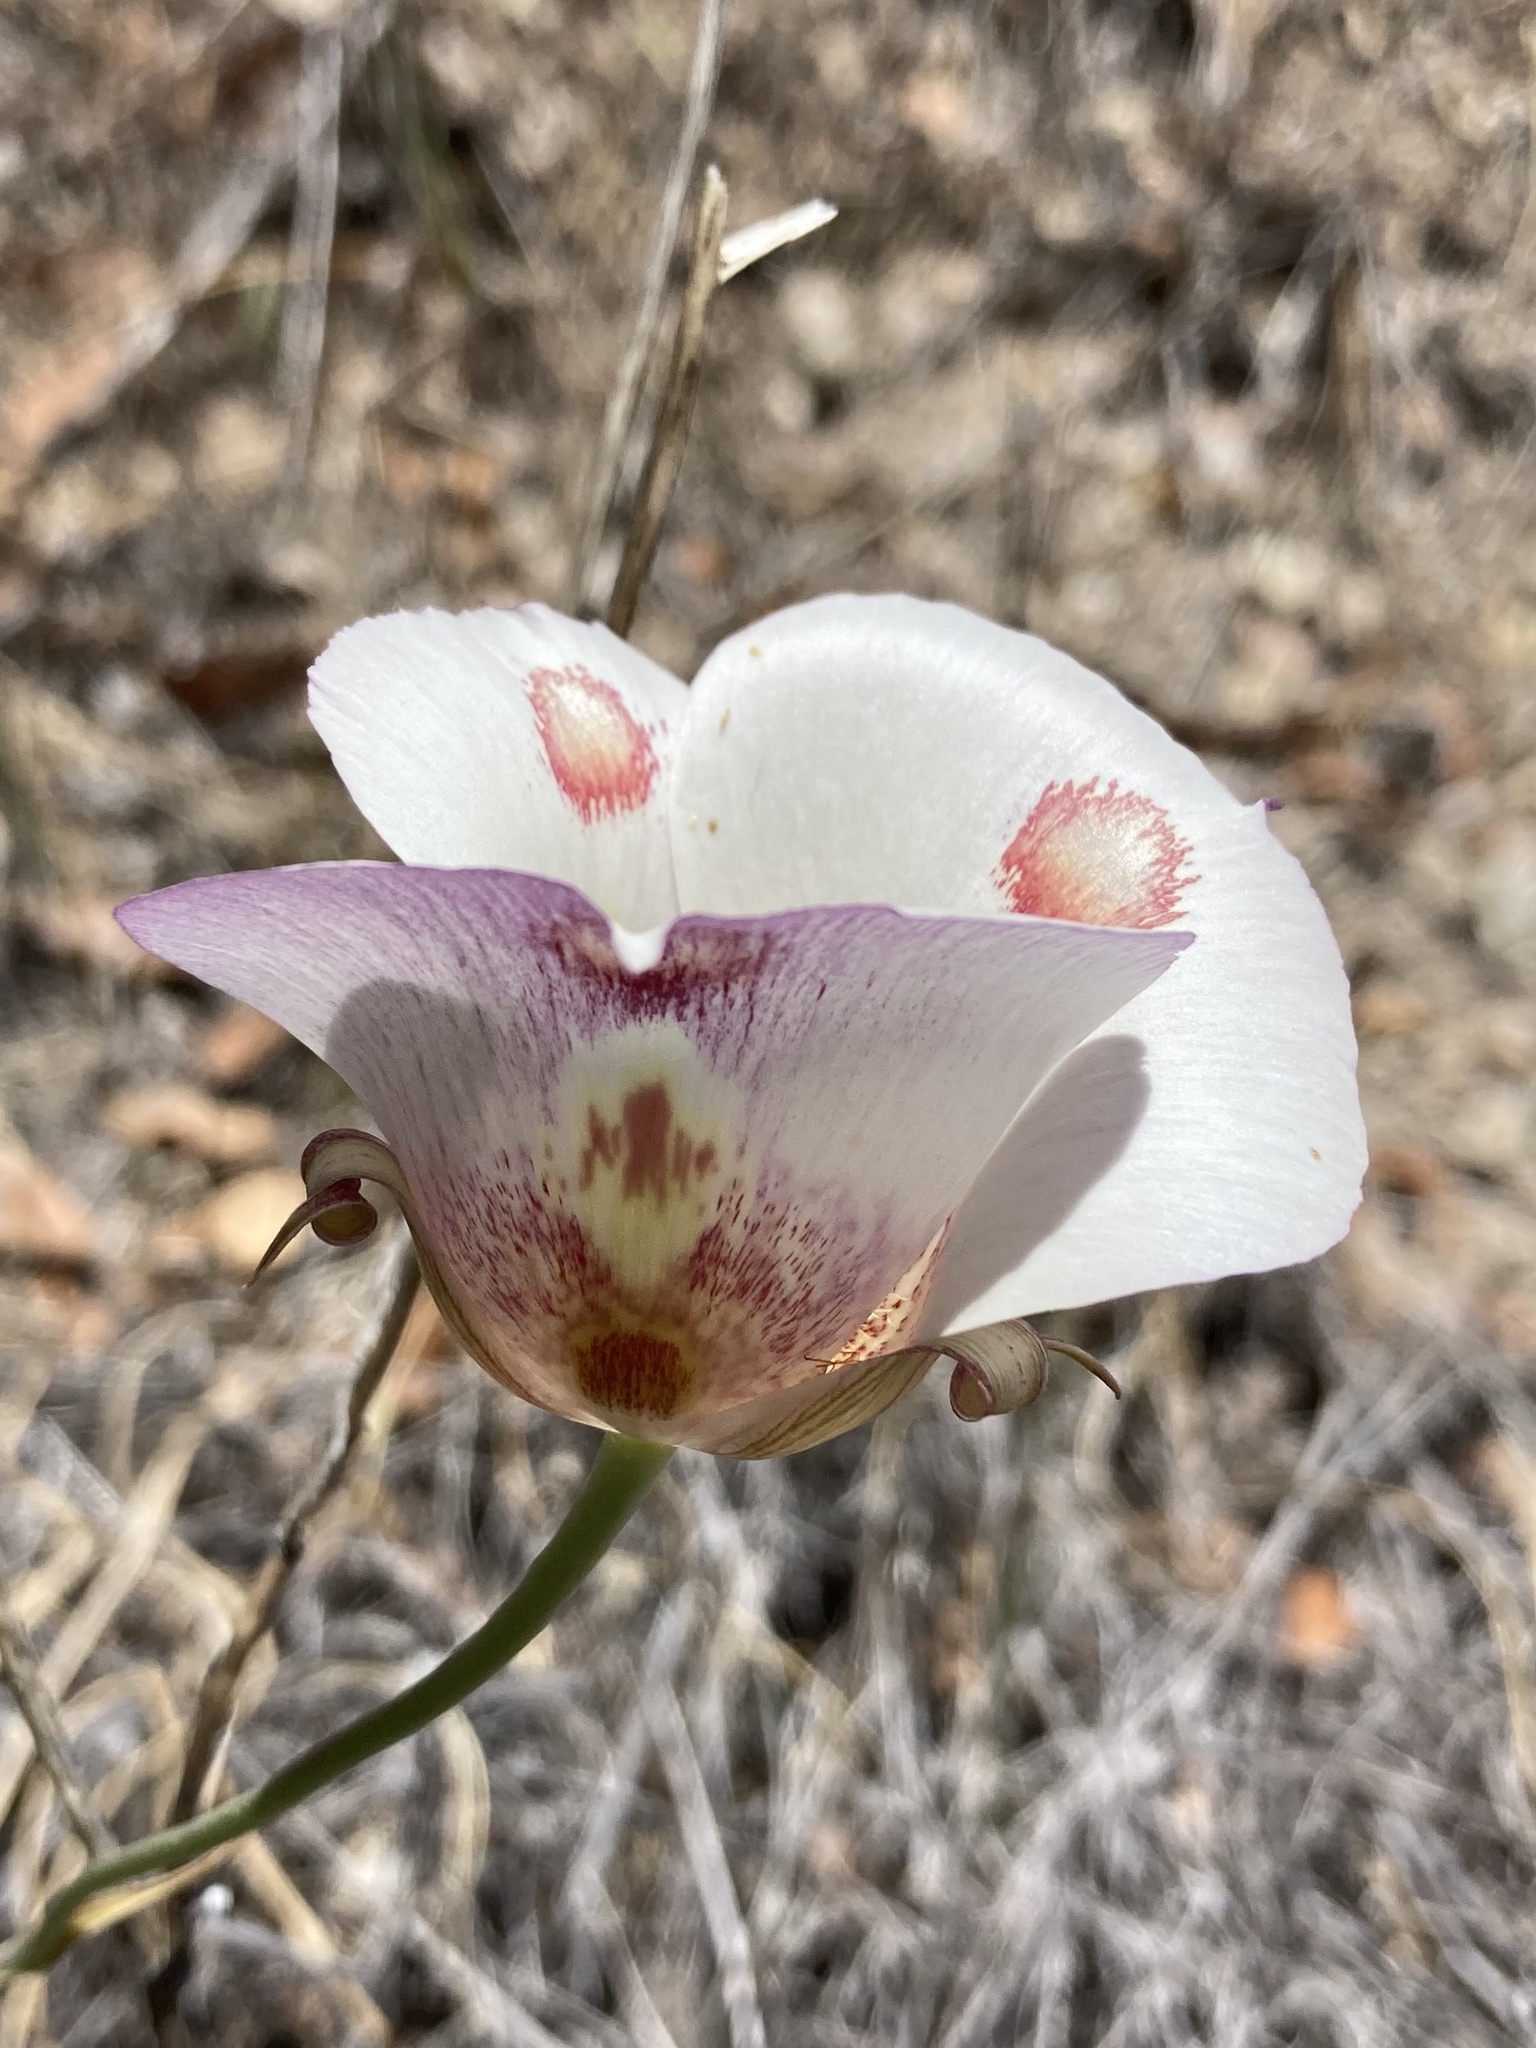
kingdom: Plantae
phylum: Tracheophyta
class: Liliopsida
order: Liliales
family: Liliaceae
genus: Calochortus
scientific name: Calochortus venustus
